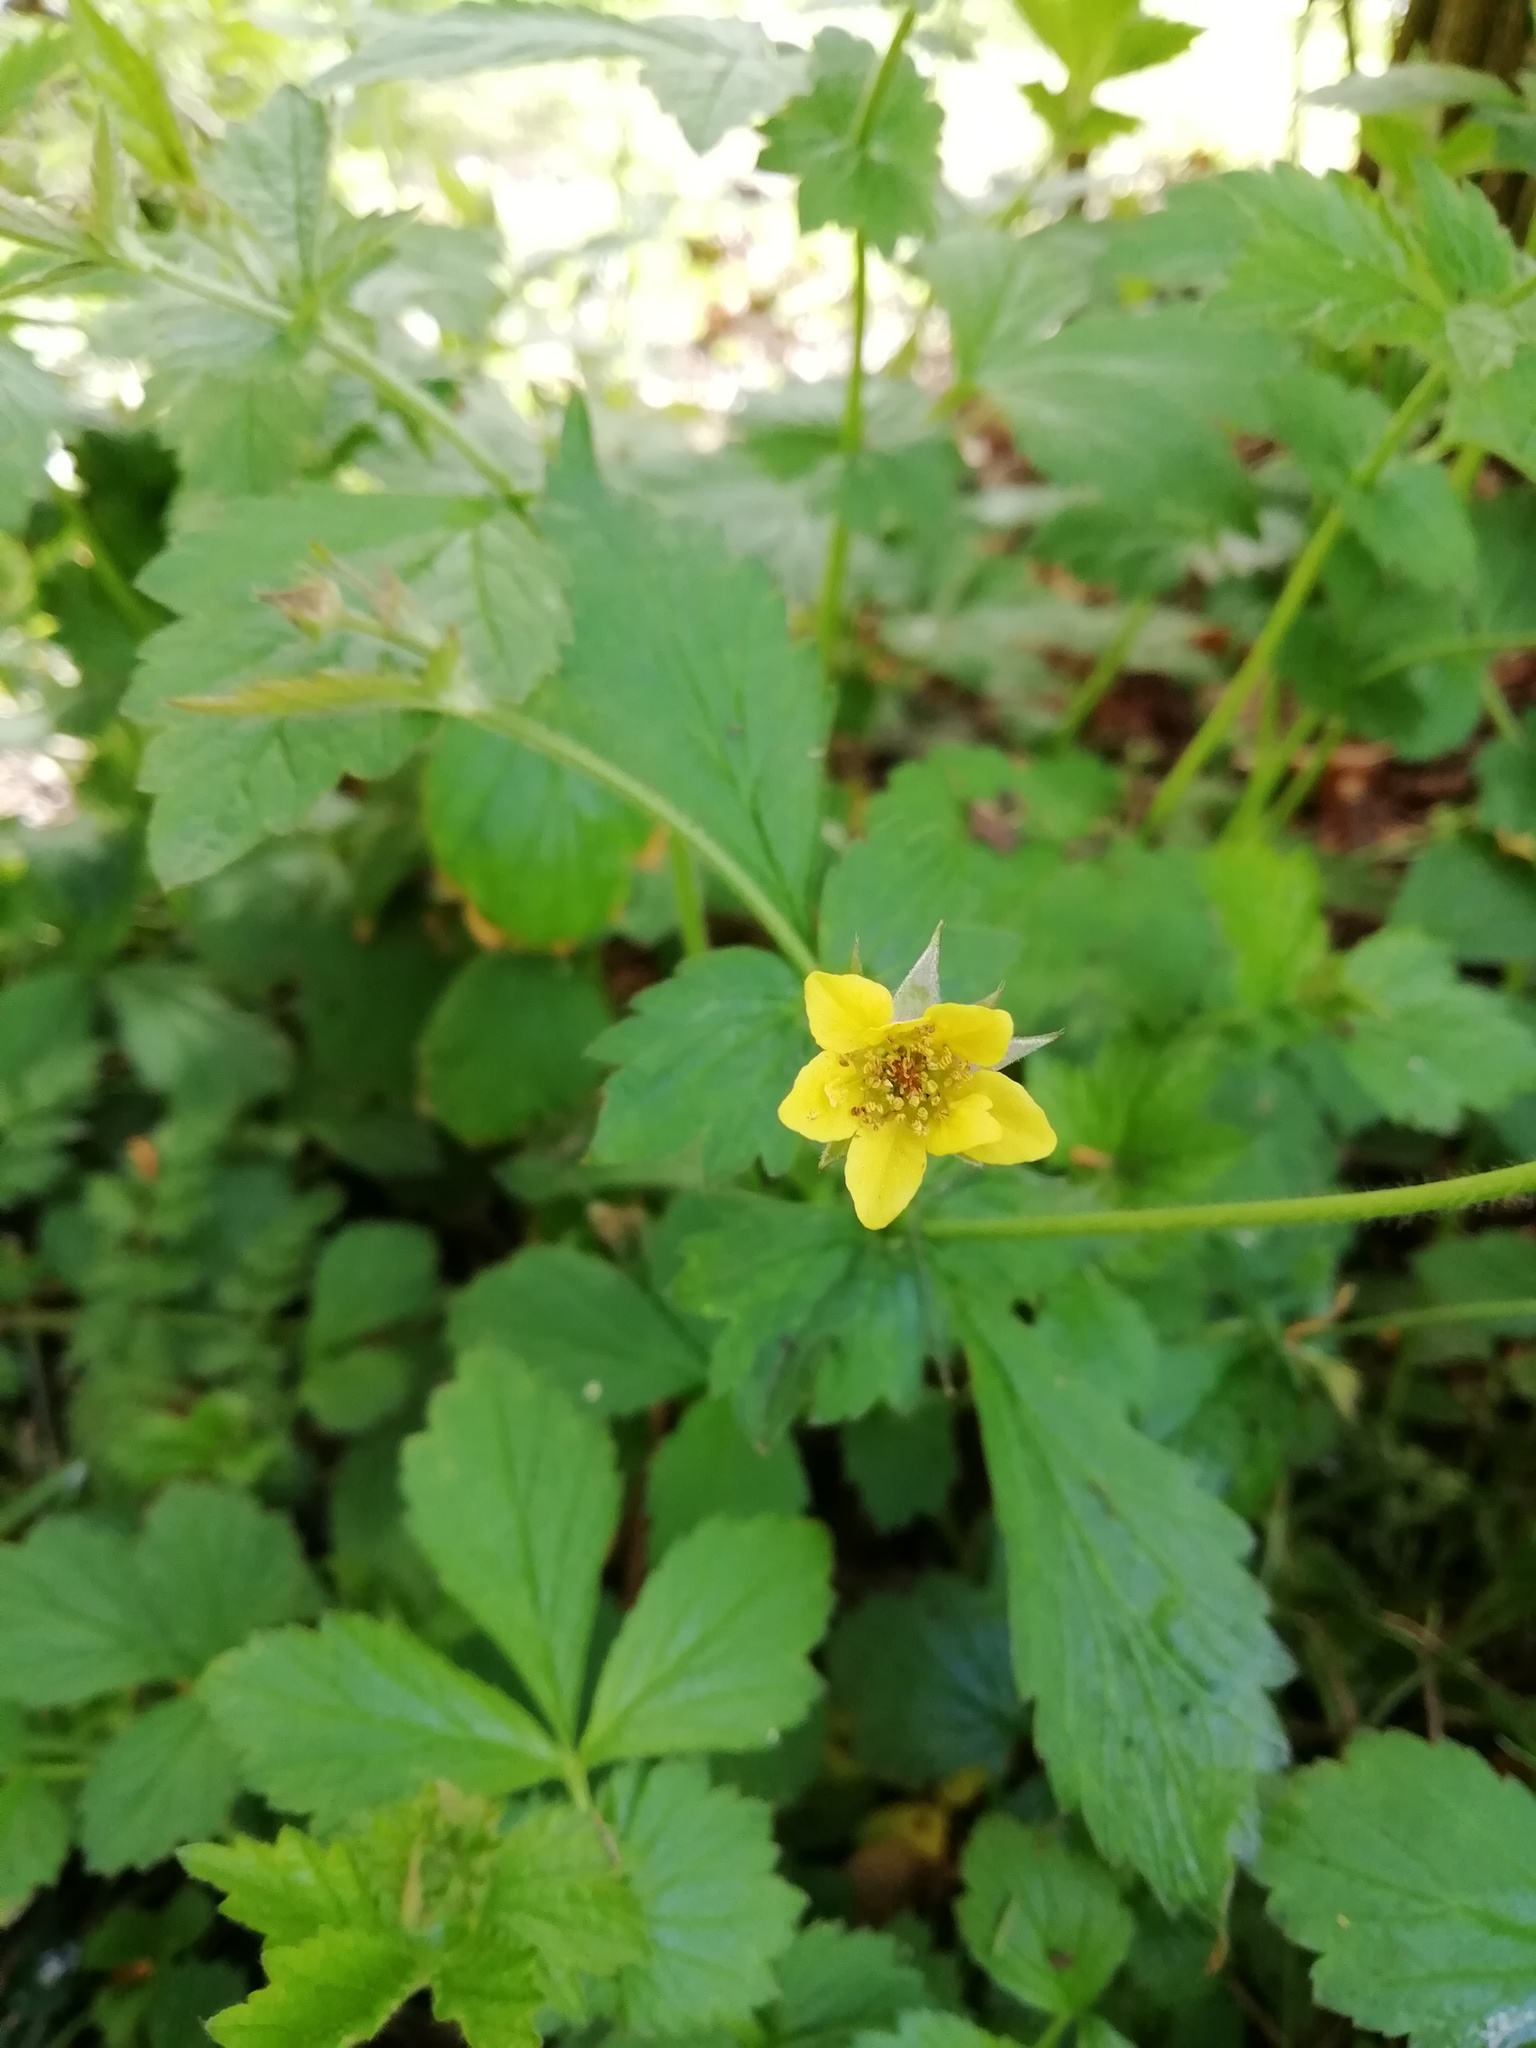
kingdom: Plantae
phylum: Tracheophyta
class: Magnoliopsida
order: Rosales
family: Rosaceae
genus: Geum
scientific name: Geum urbanum
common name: Wood avens
